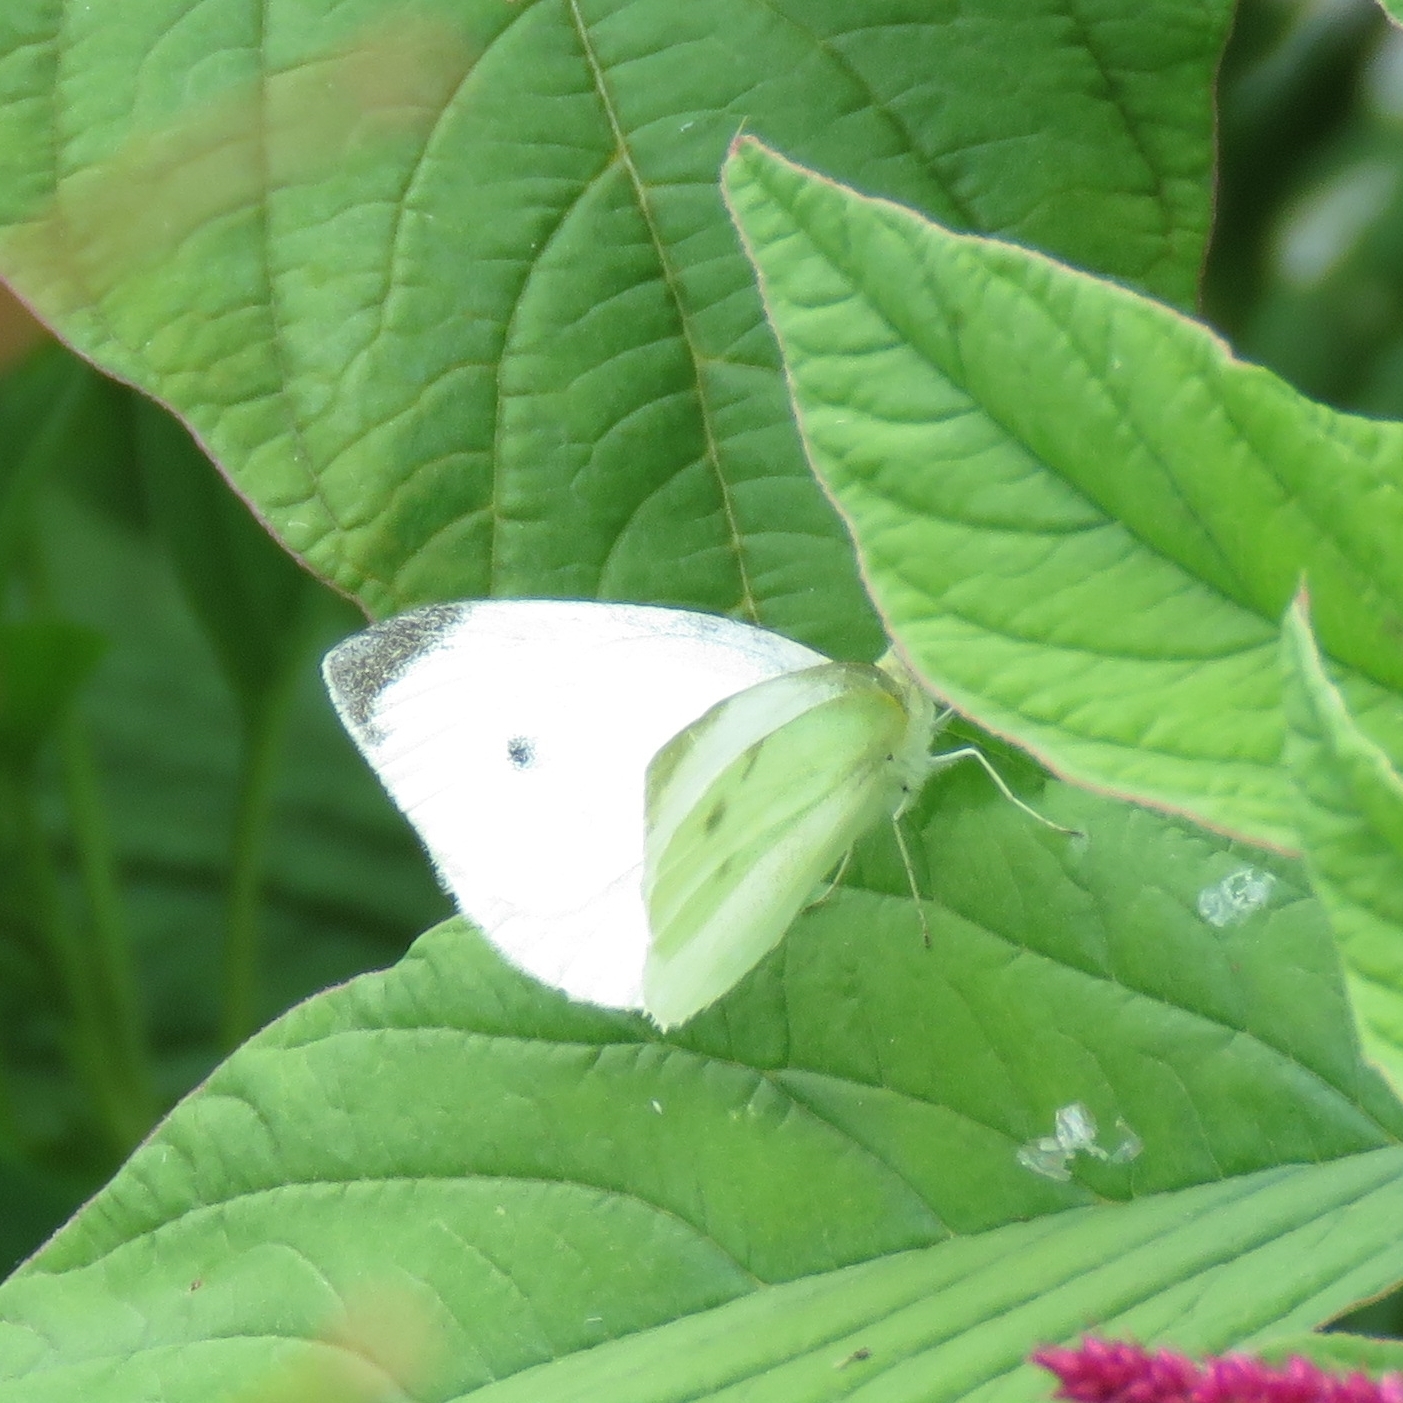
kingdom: Animalia
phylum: Arthropoda
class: Insecta
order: Lepidoptera
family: Pieridae
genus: Pieris
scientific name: Pieris rapae
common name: Small white
